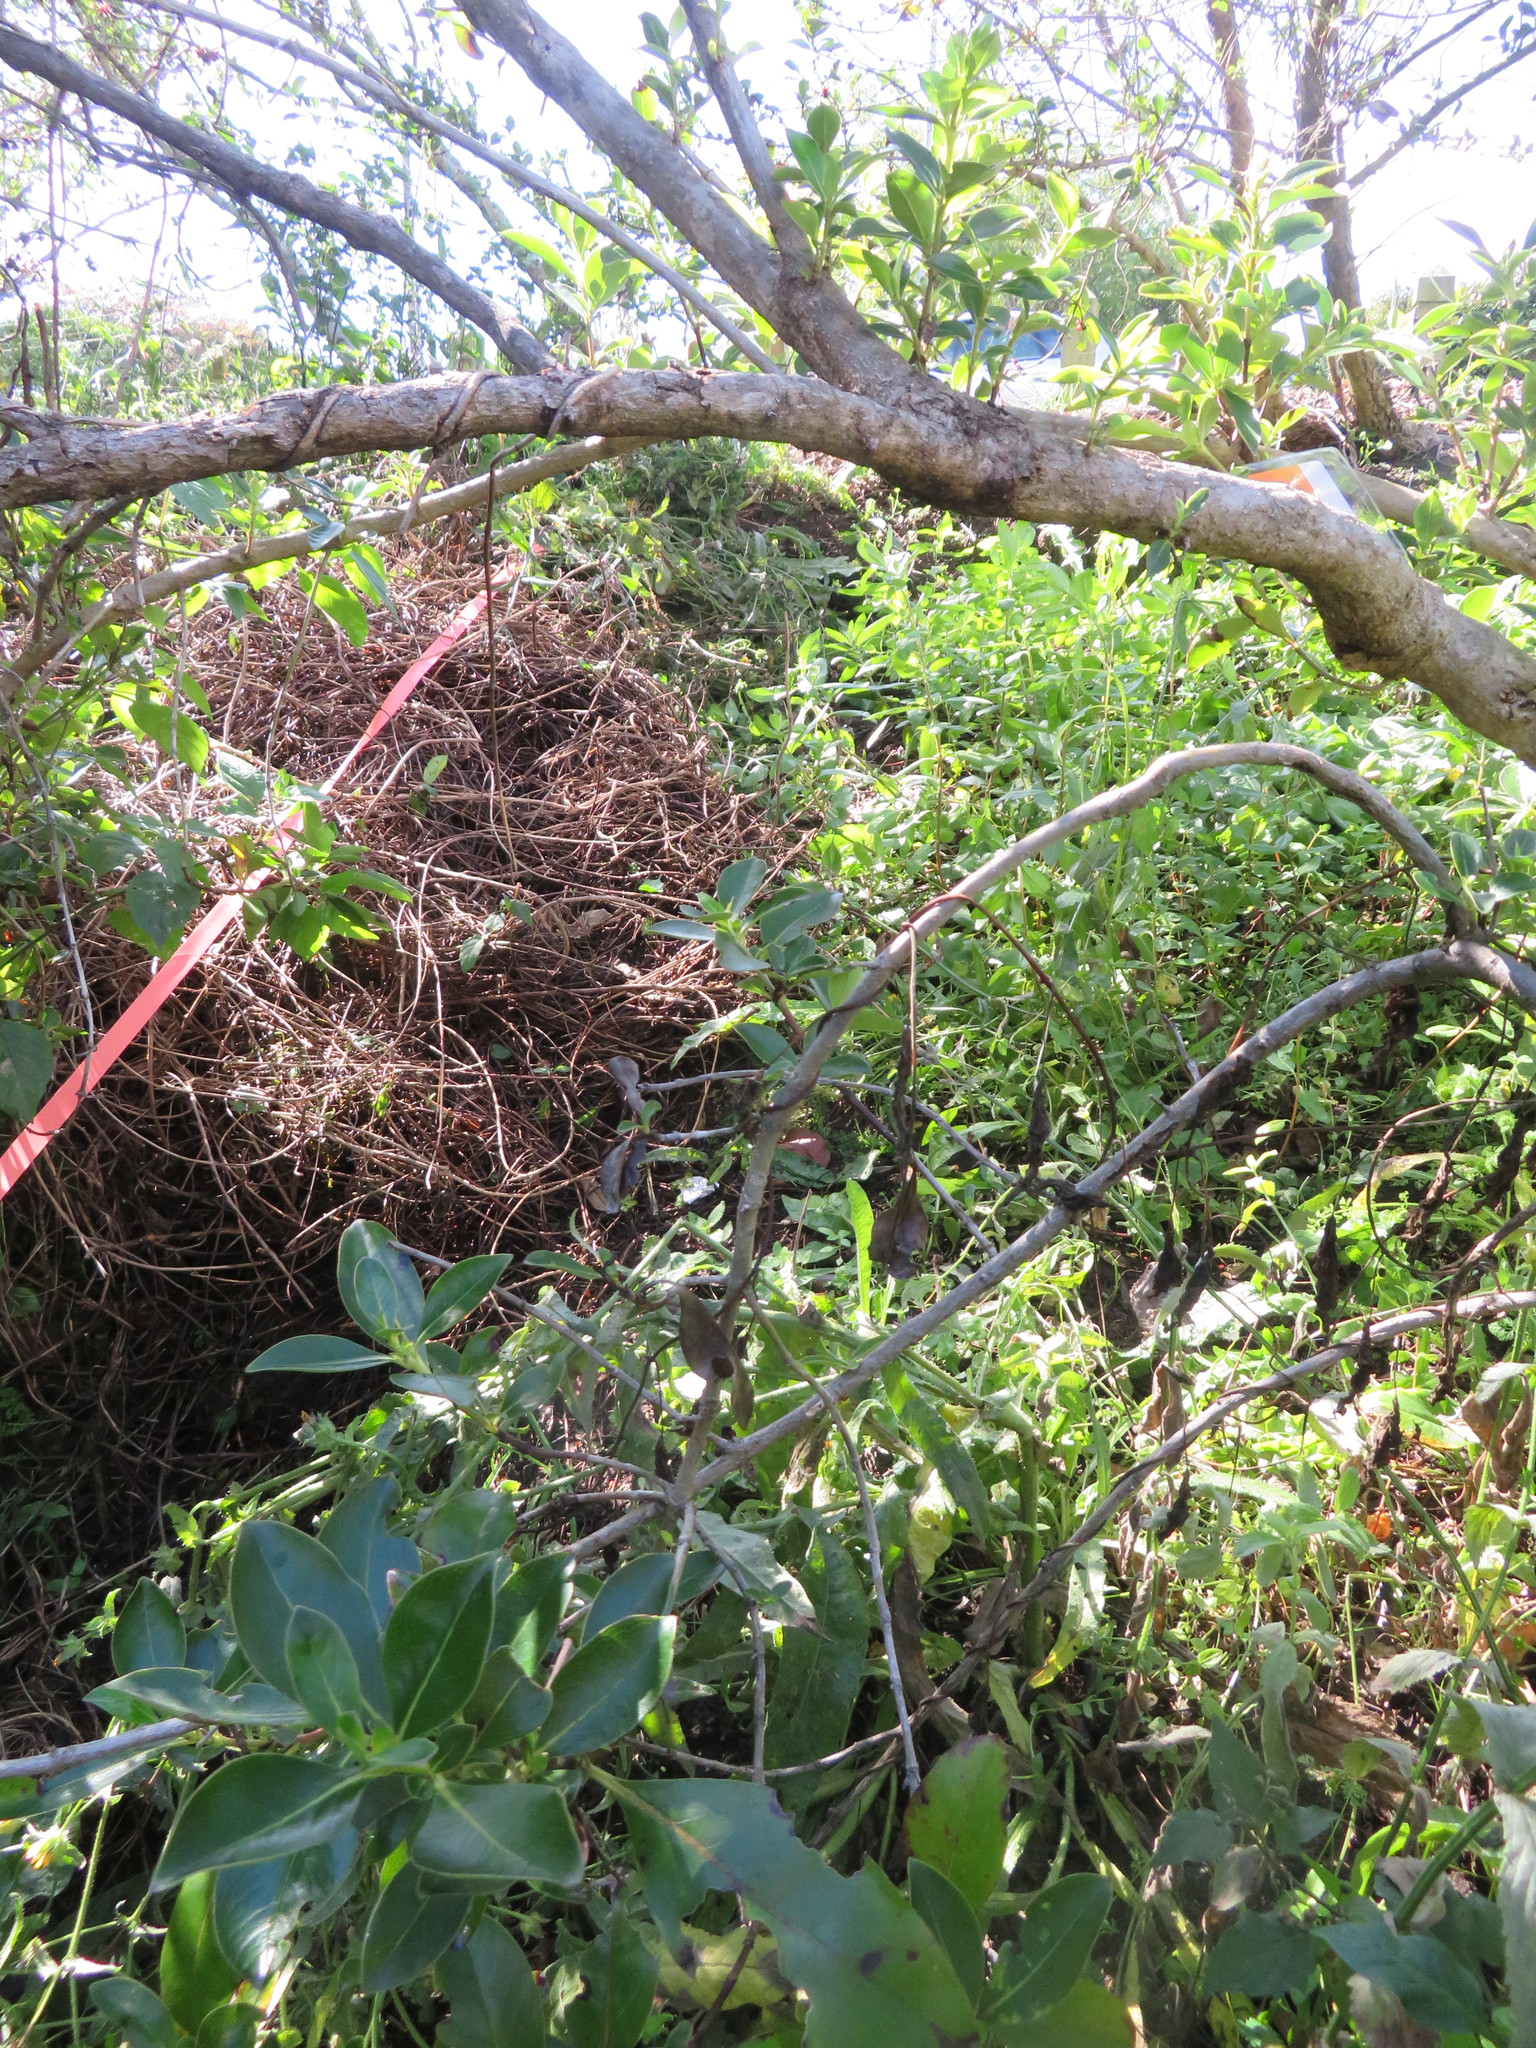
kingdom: Plantae
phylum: Tracheophyta
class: Magnoliopsida
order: Gentianales
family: Rubiaceae
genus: Coprosma
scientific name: Coprosma robusta
